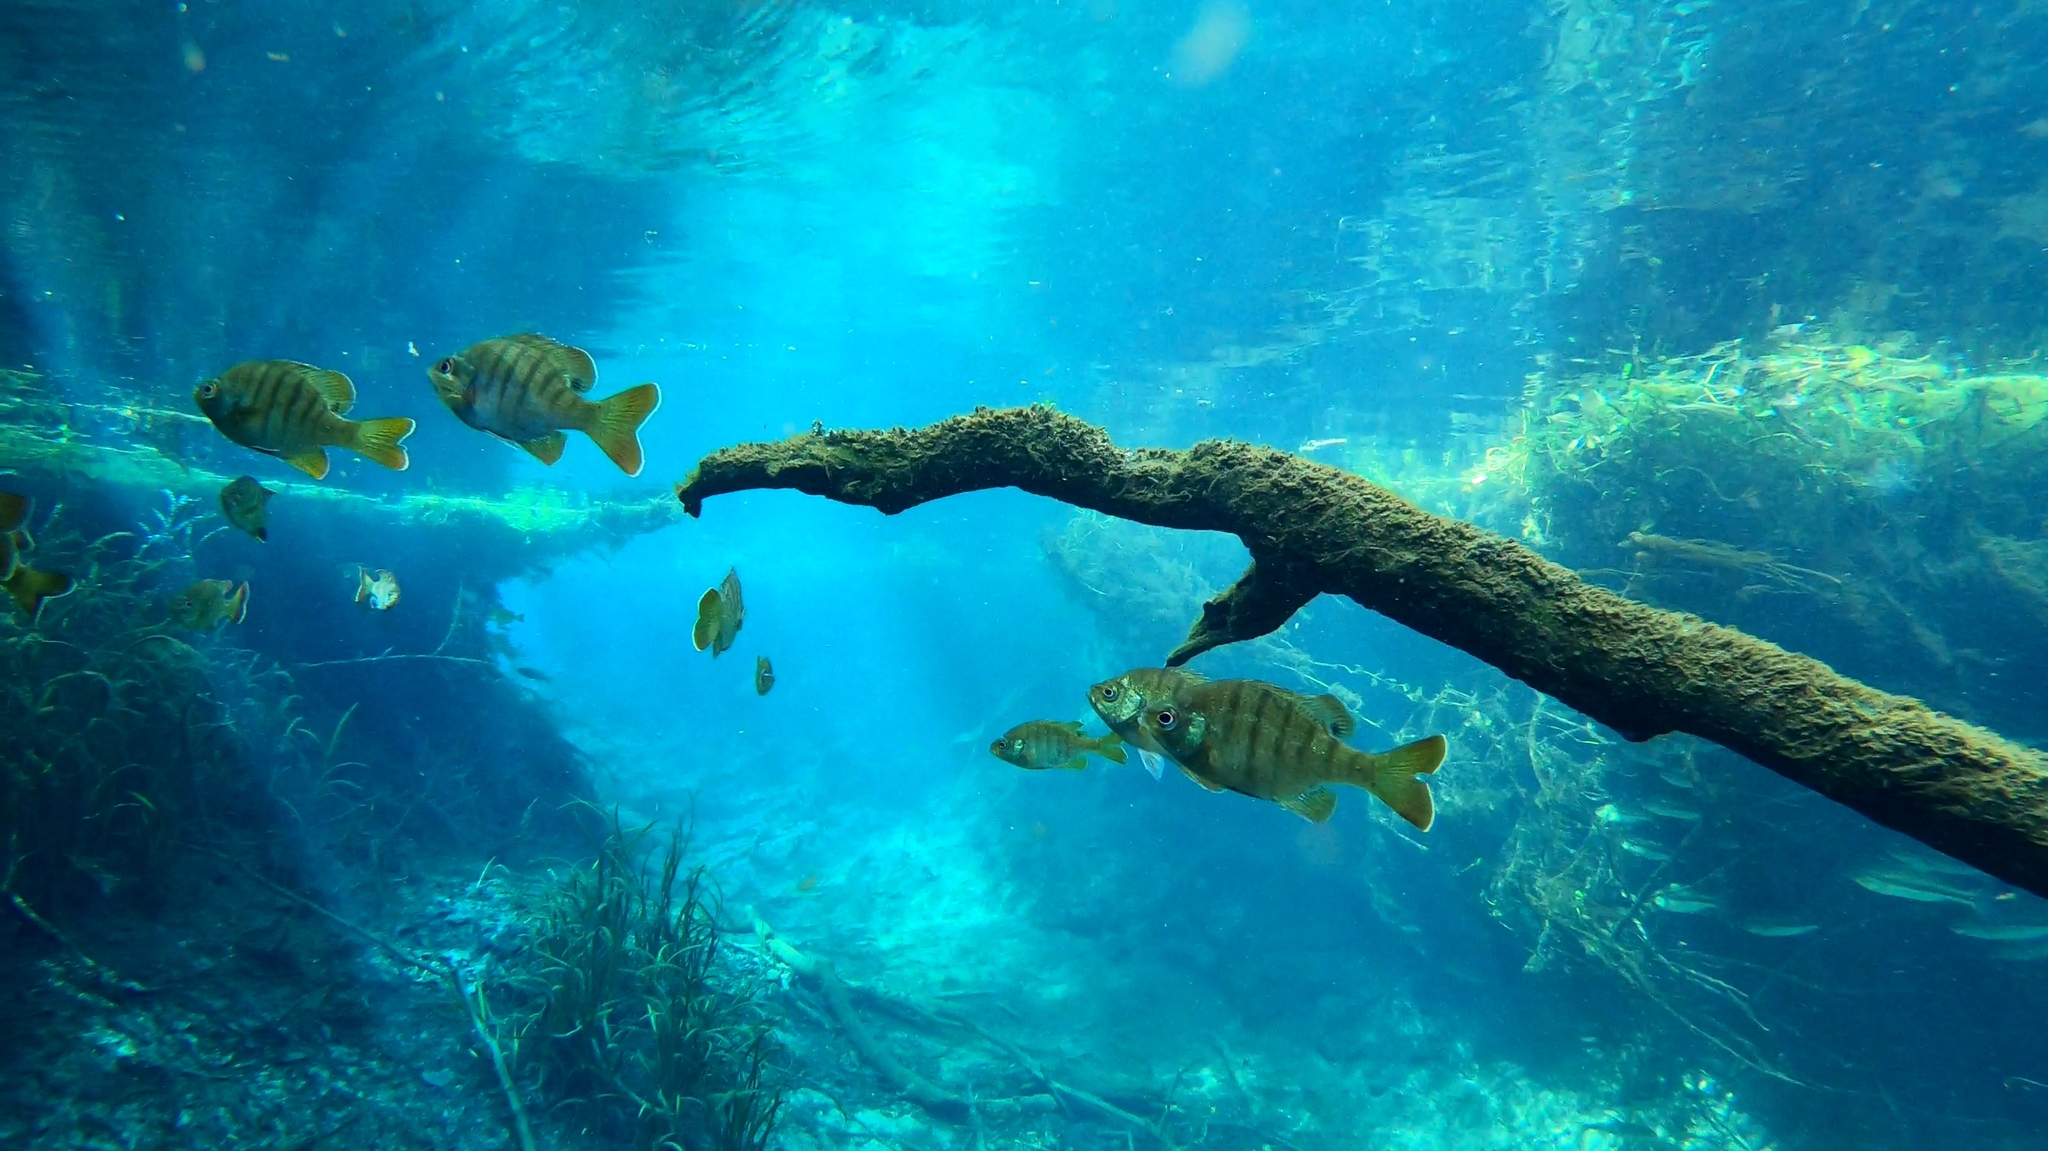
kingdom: Animalia
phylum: Chordata
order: Perciformes
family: Centrarchidae
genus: Lepomis
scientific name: Lepomis macrochirus
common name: Bluegill
